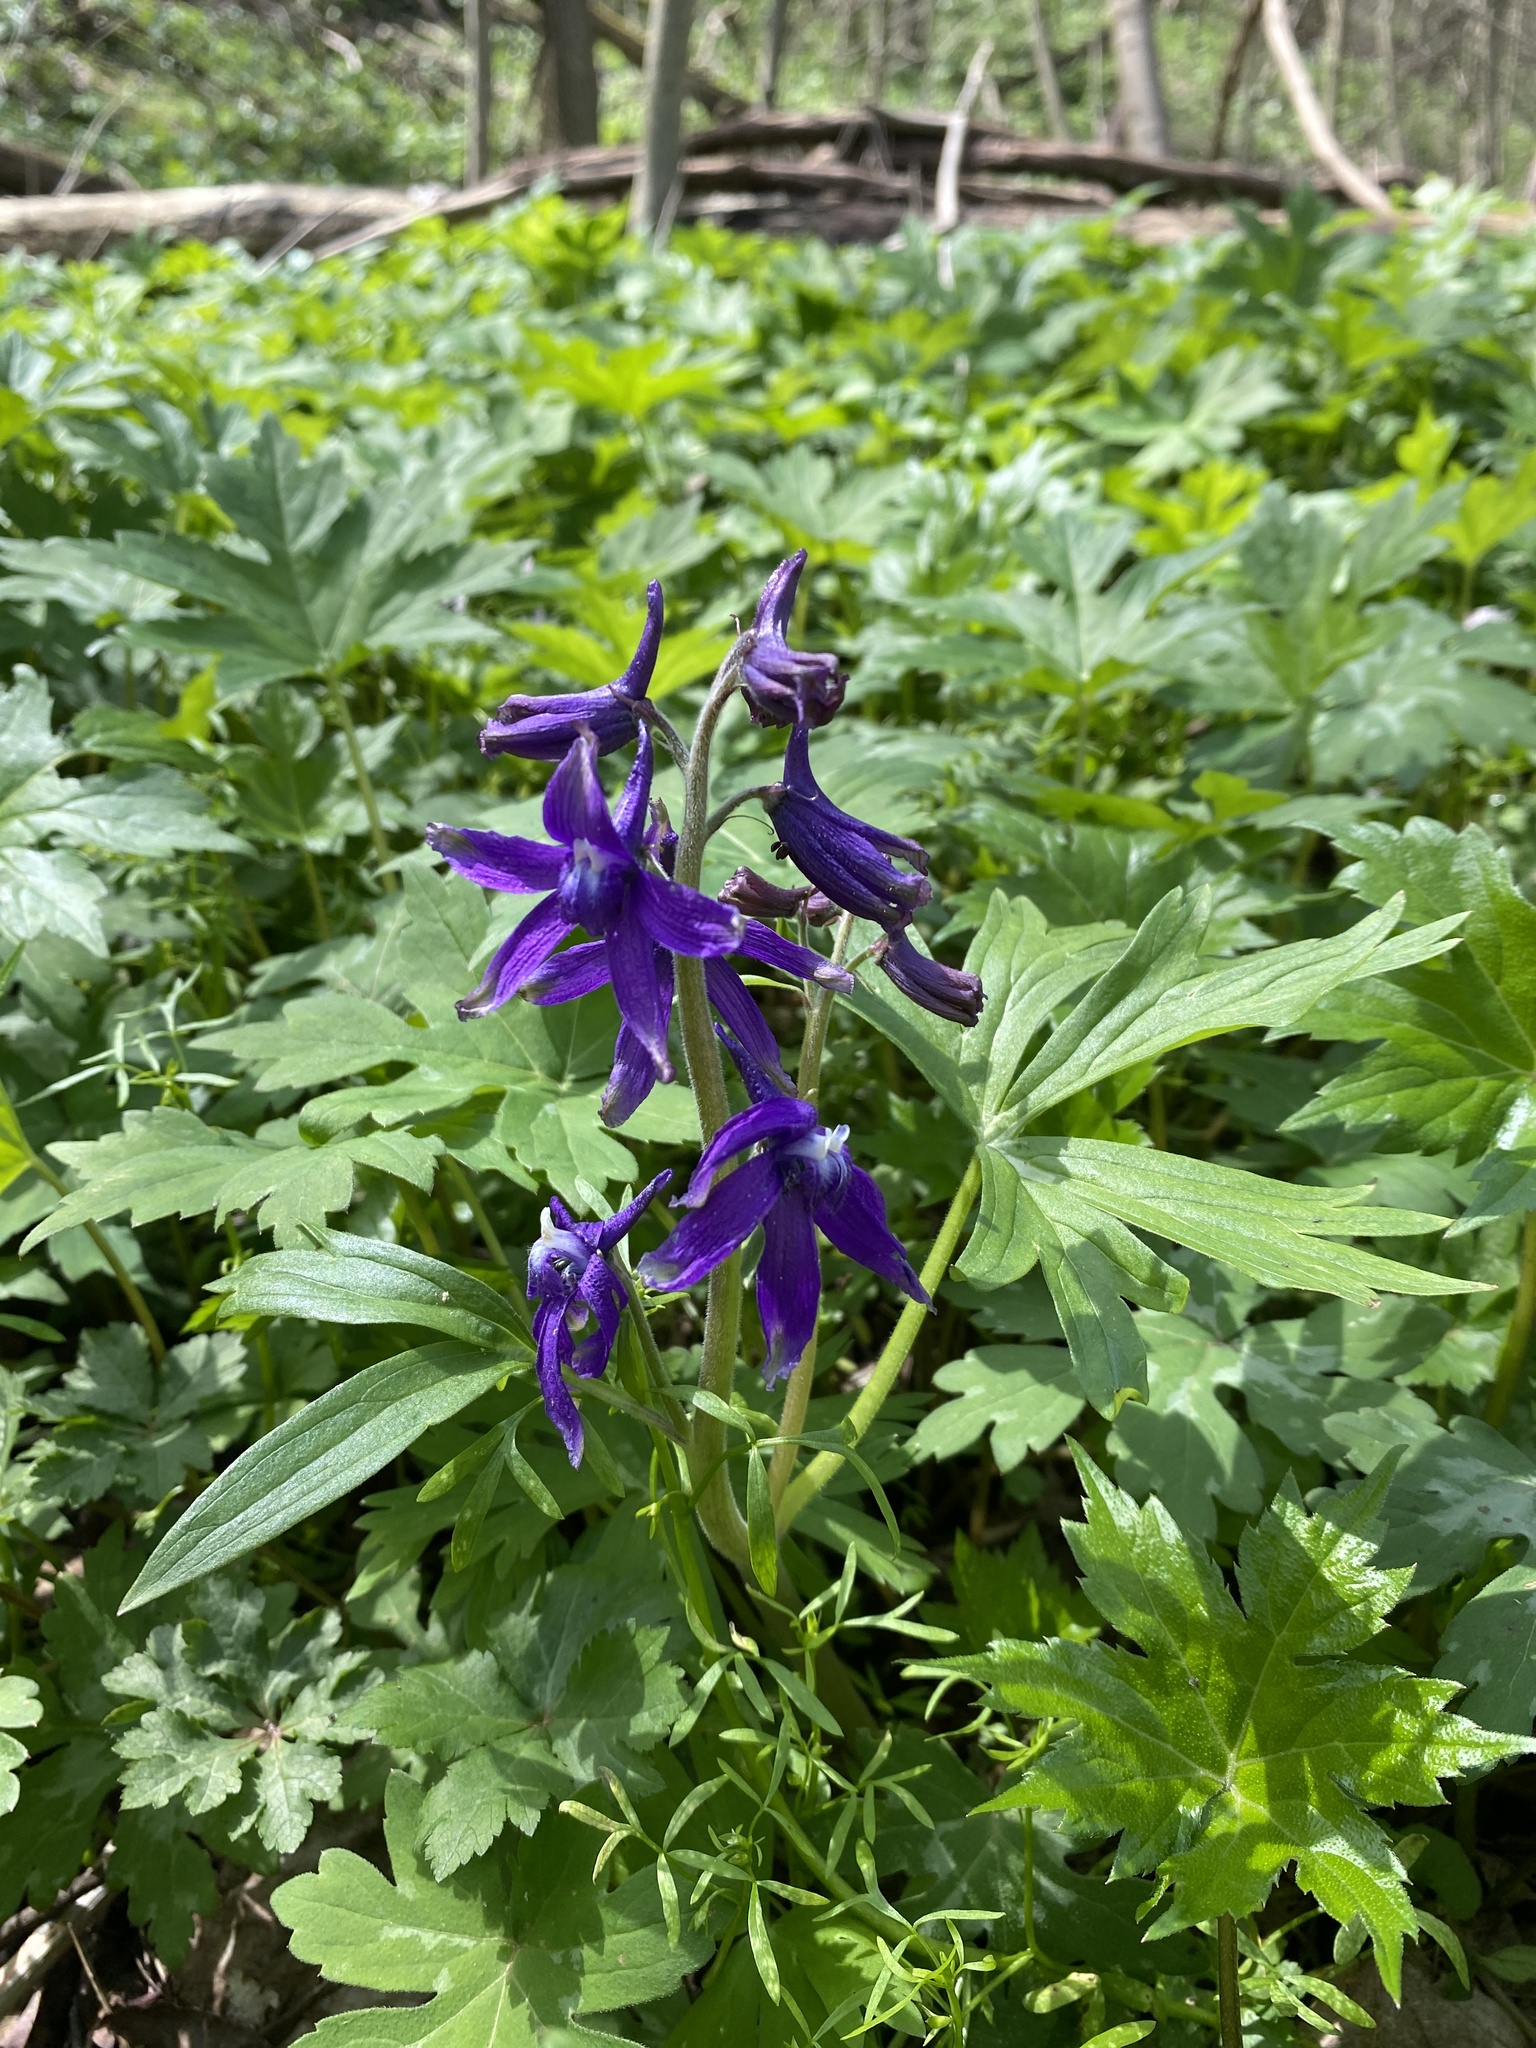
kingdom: Plantae
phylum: Tracheophyta
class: Magnoliopsida
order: Ranunculales
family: Ranunculaceae
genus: Delphinium
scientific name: Delphinium tricorne
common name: Dwarf larkspur
